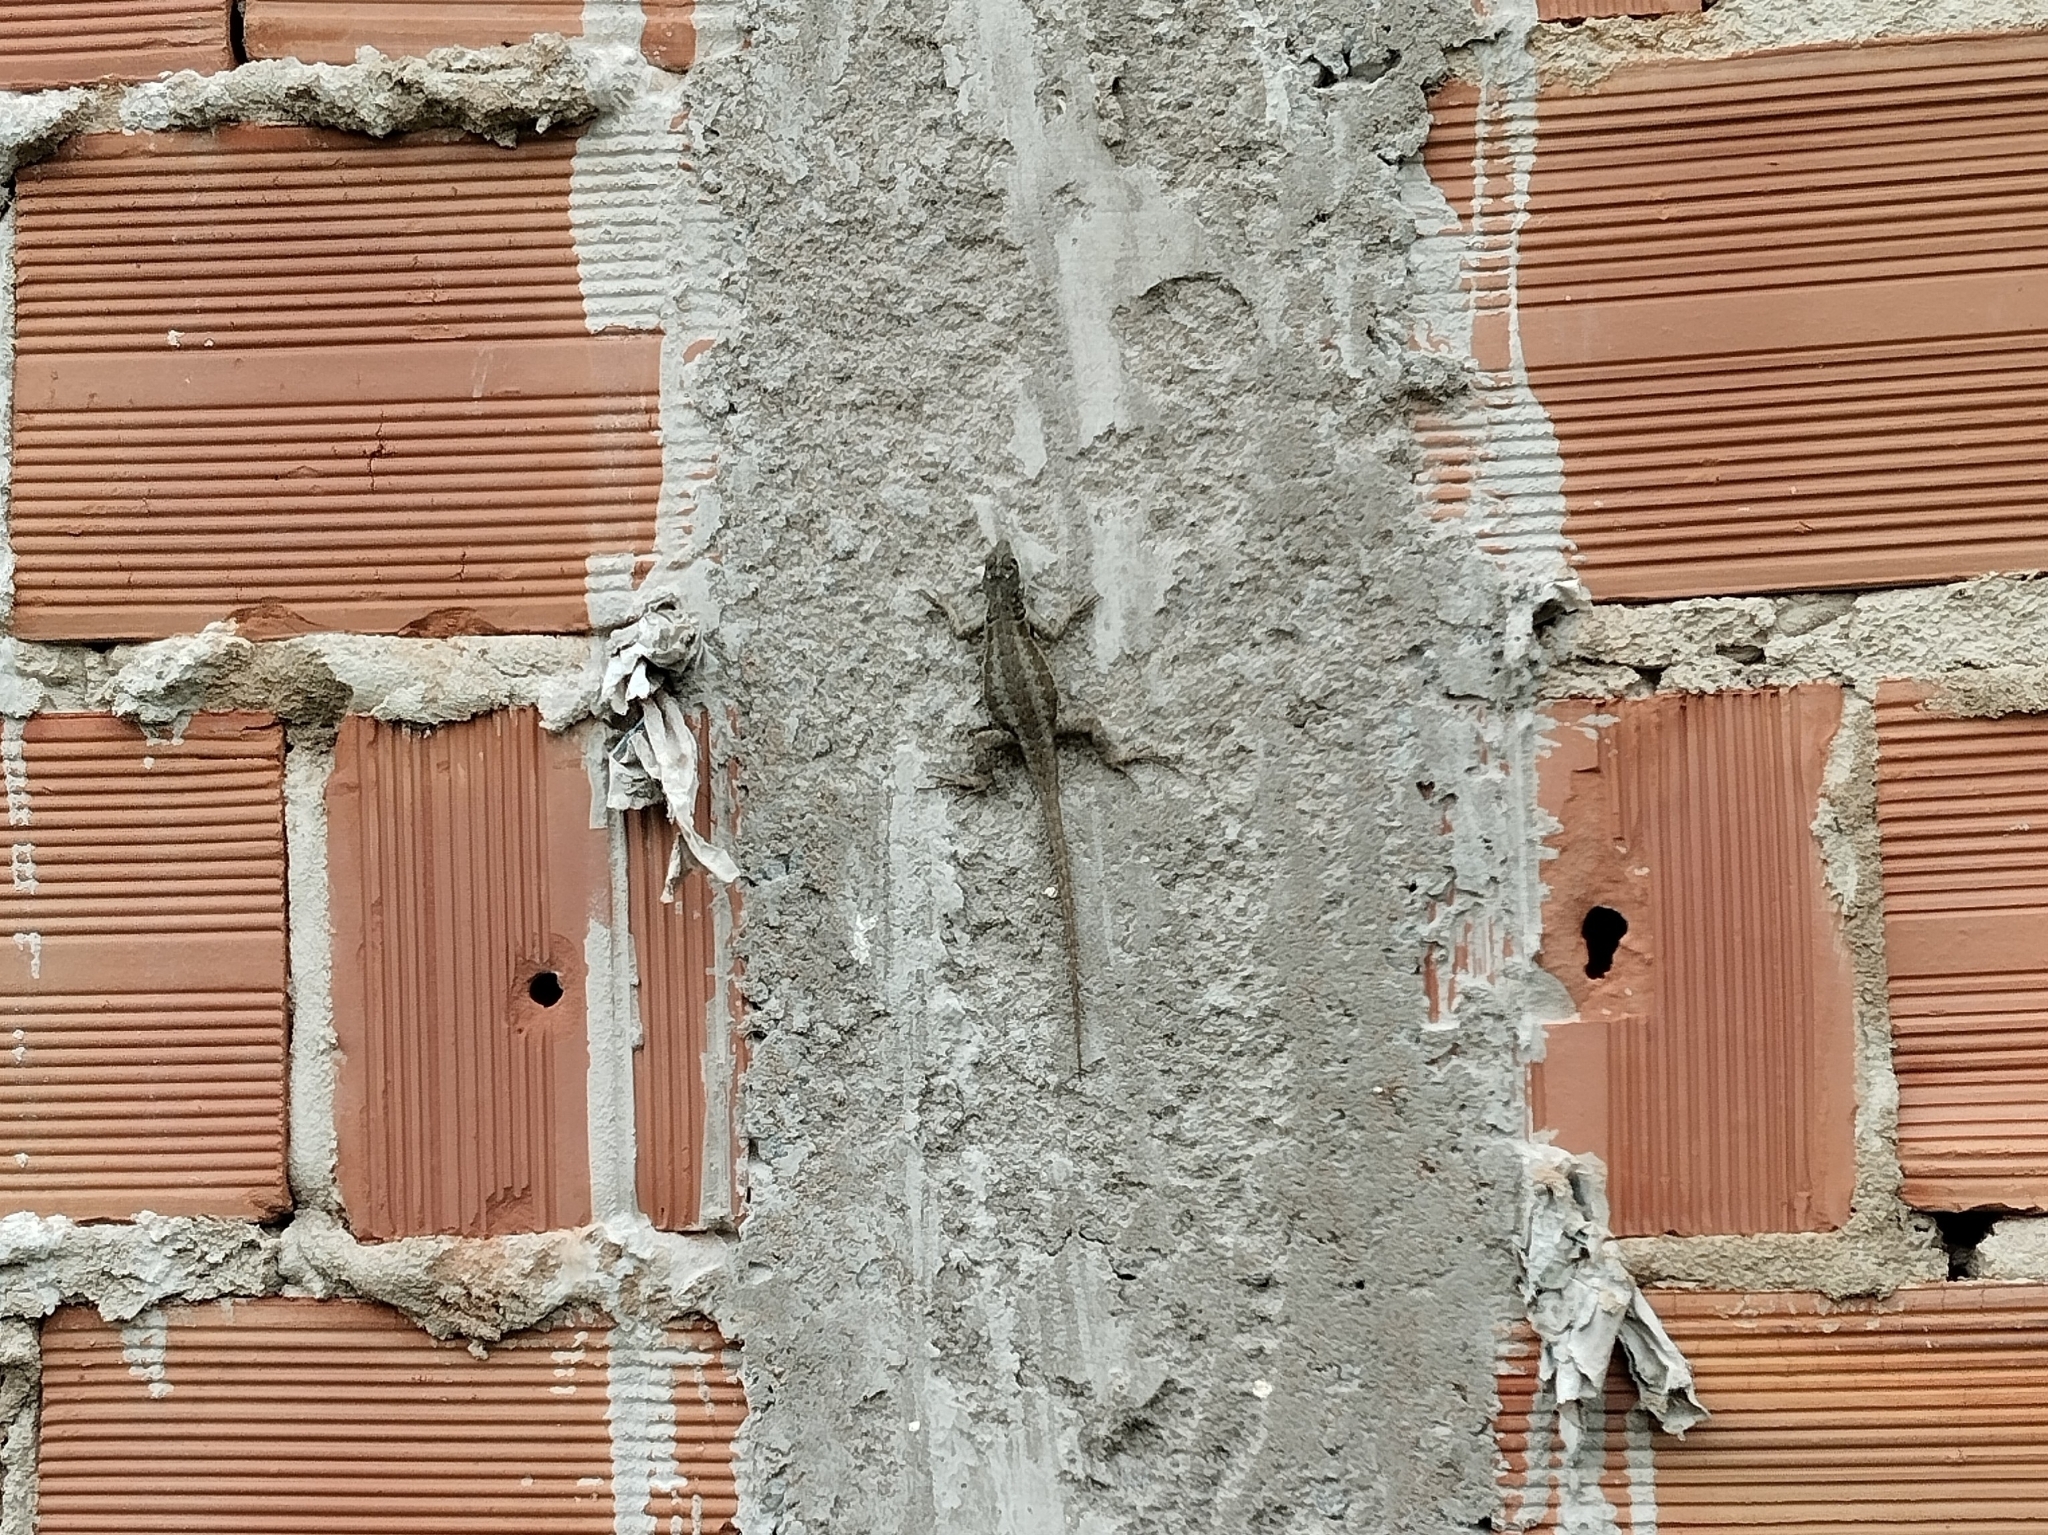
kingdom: Animalia
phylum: Chordata
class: Squamata
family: Tropiduridae
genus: Tropidurus
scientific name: Tropidurus torquatus
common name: Amazon lava lizard
